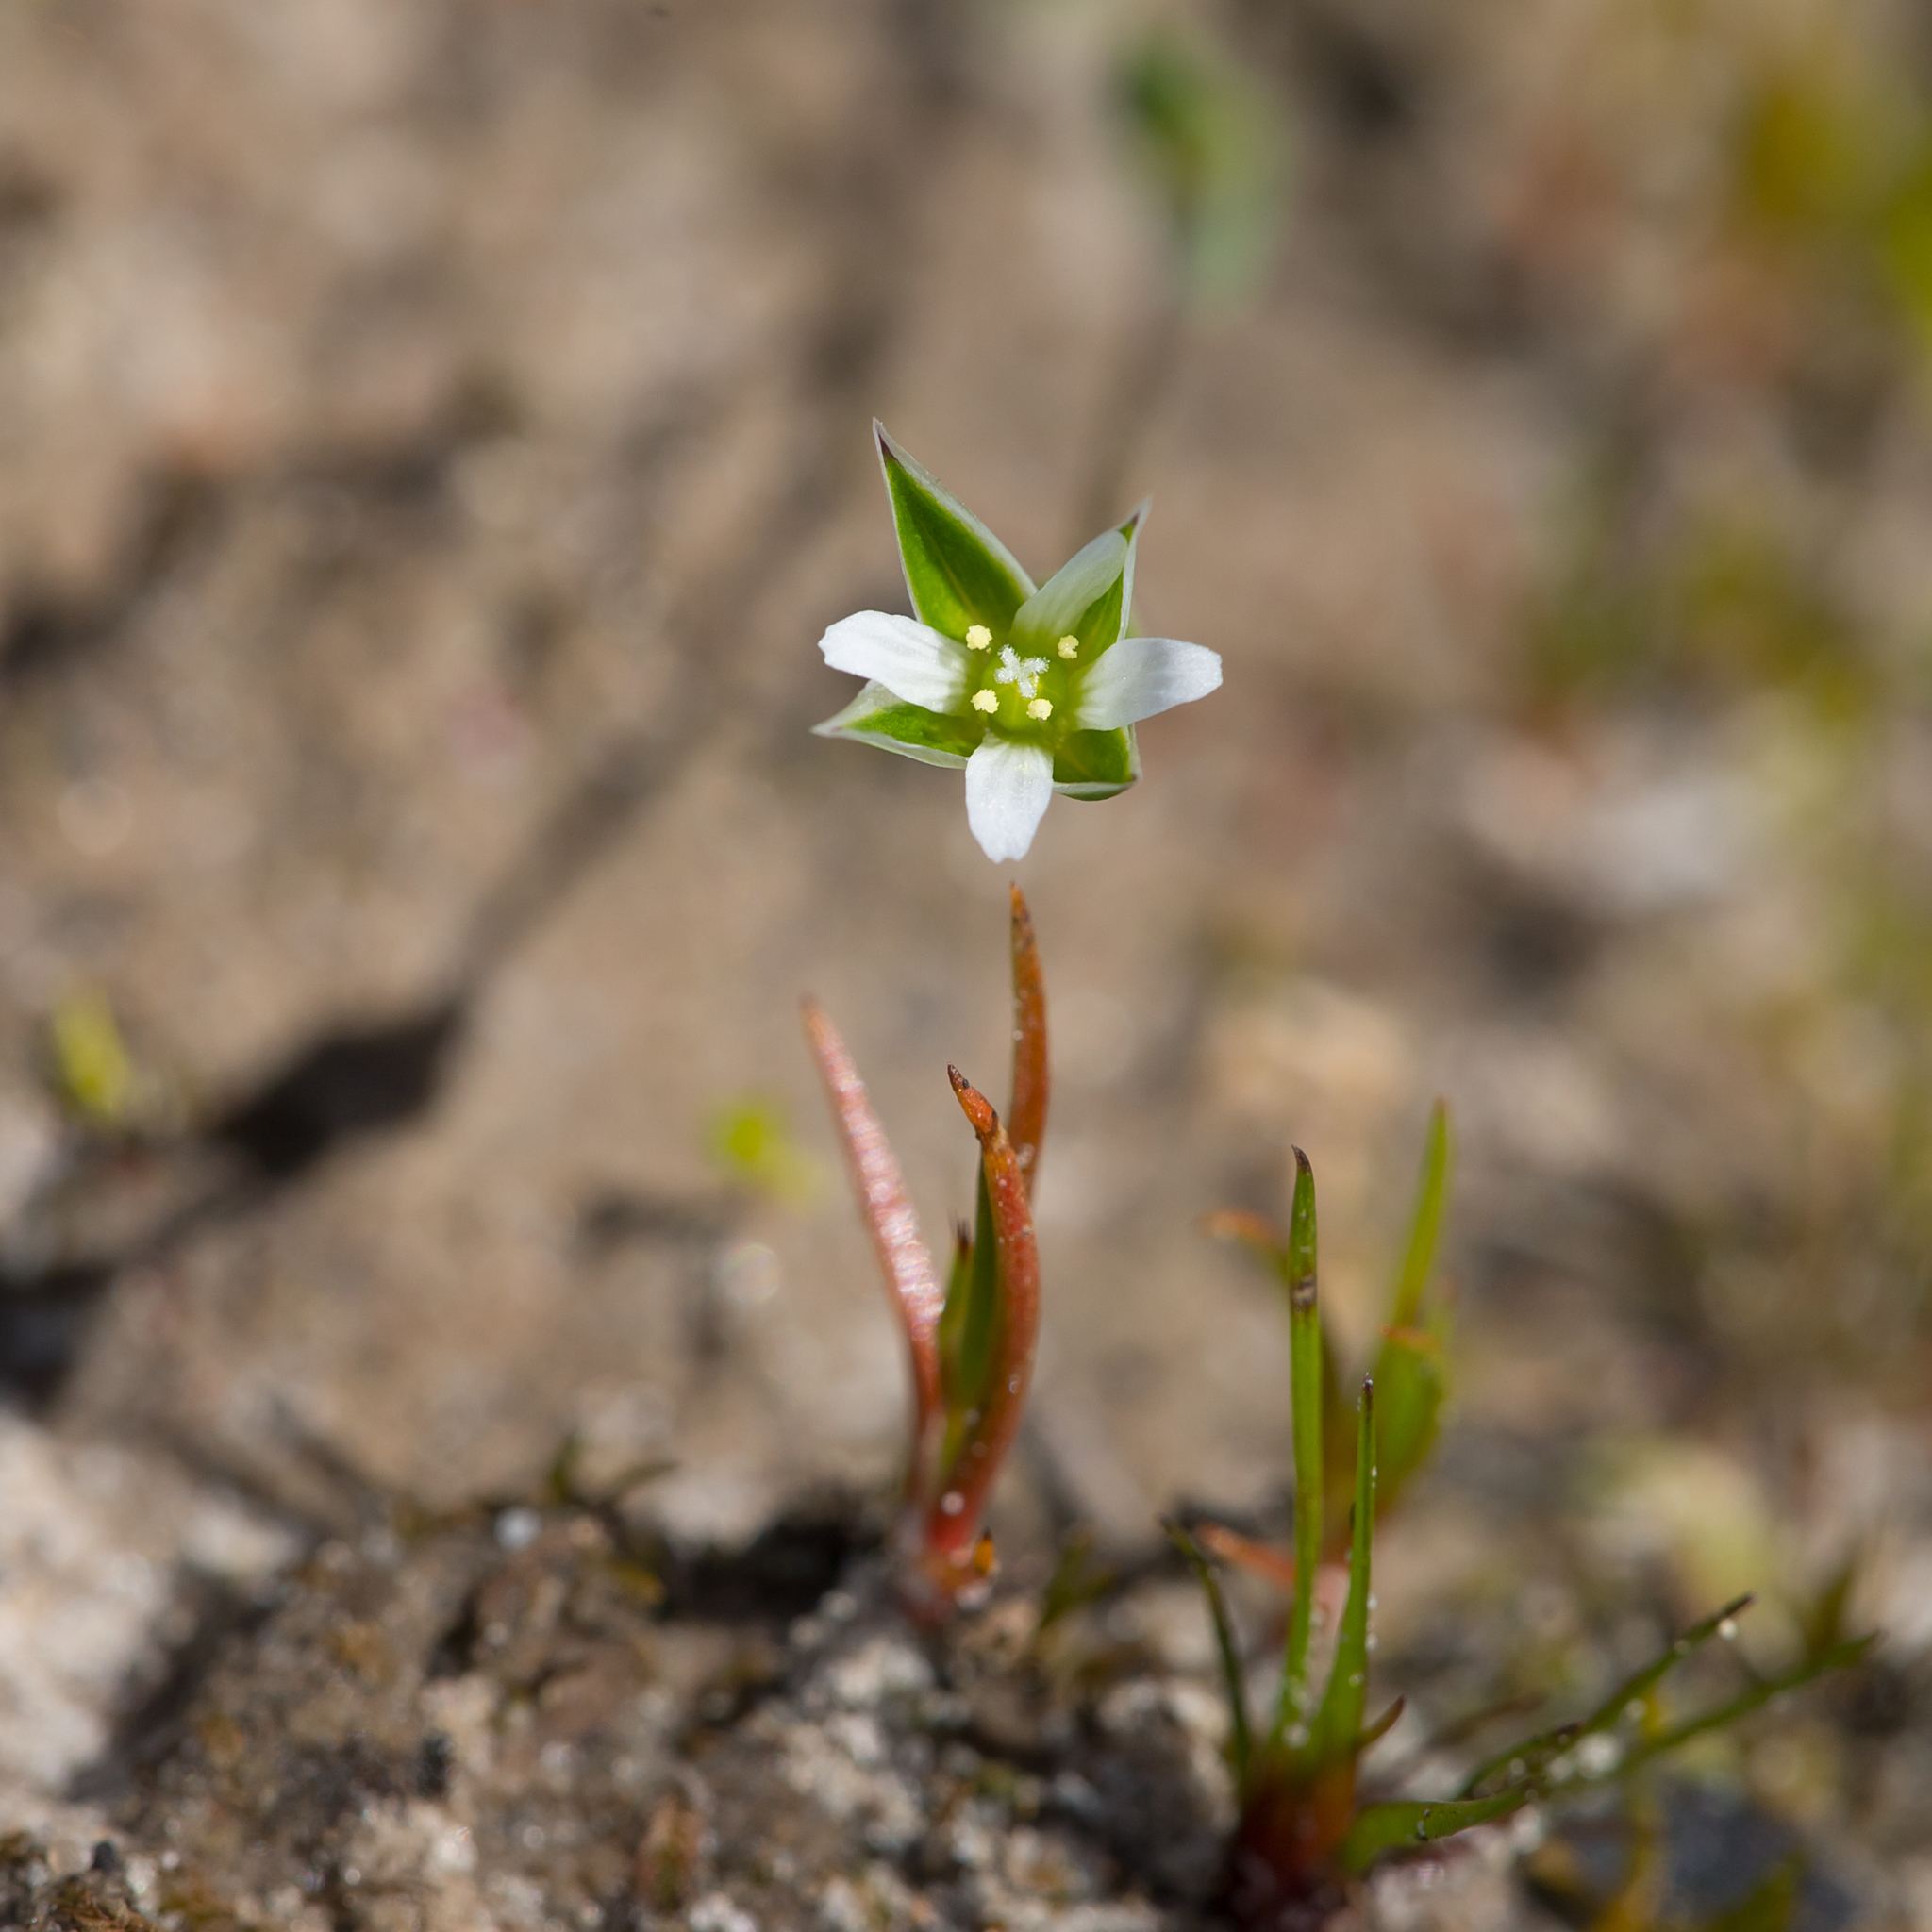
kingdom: Plantae
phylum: Tracheophyta
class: Magnoliopsida
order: Caryophyllales
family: Caryophyllaceae
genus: Moenchia
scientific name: Moenchia erecta
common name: Upright chickweed
